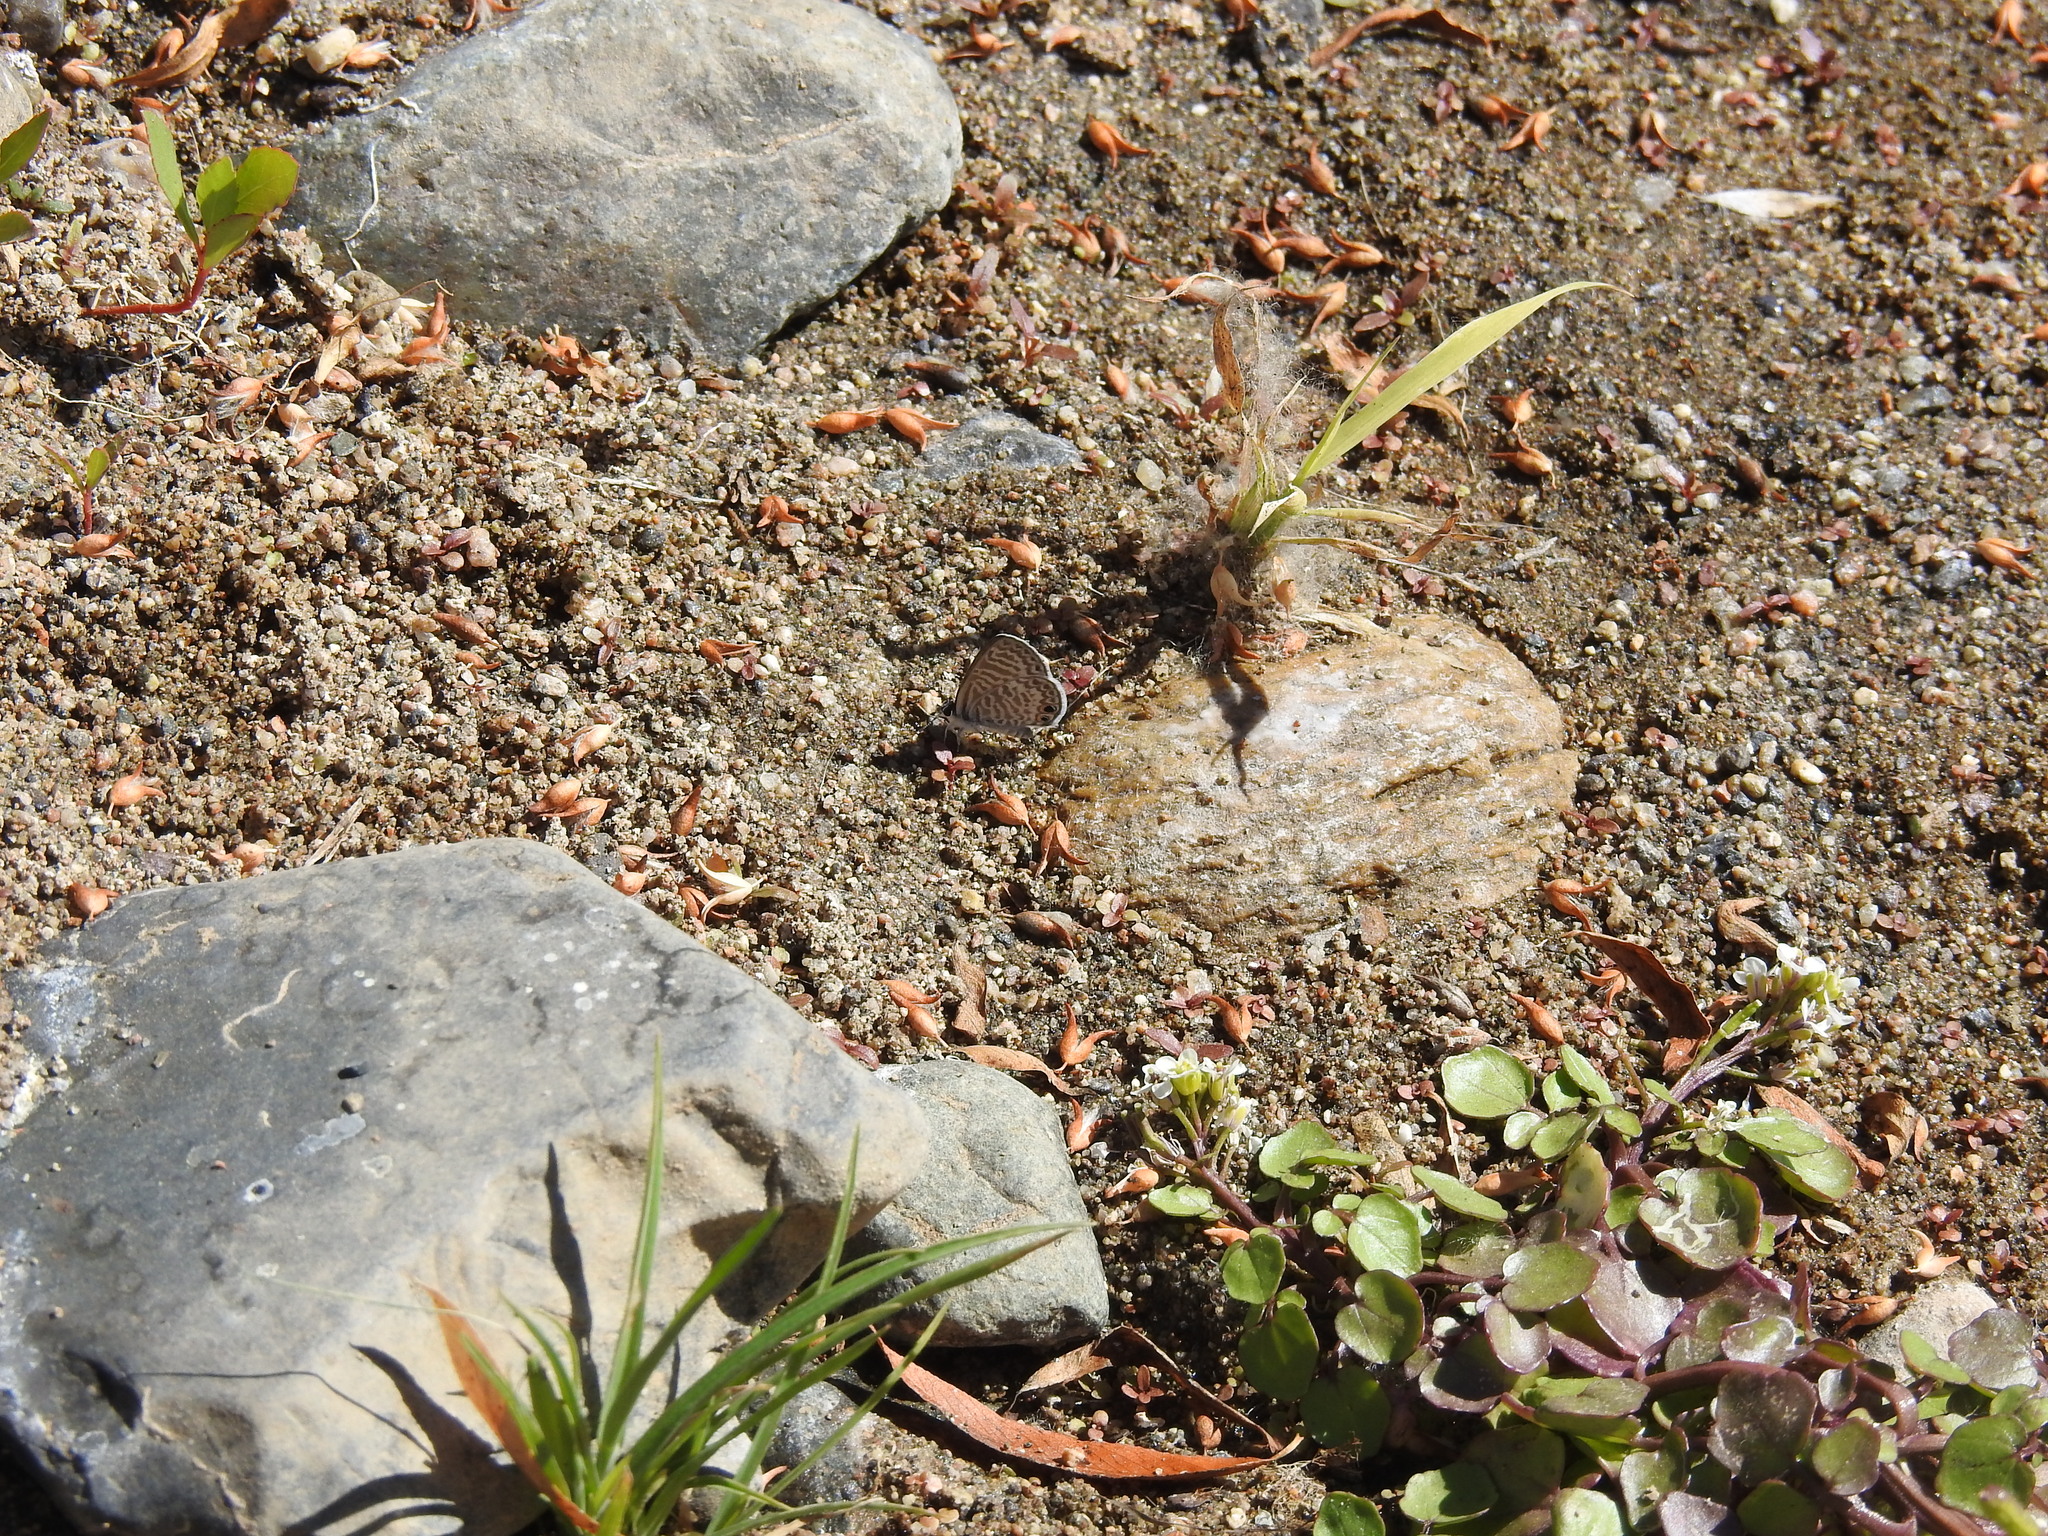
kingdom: Animalia
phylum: Arthropoda
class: Insecta
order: Lepidoptera
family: Lycaenidae
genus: Leptotes
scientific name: Leptotes marina
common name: Marine blue
